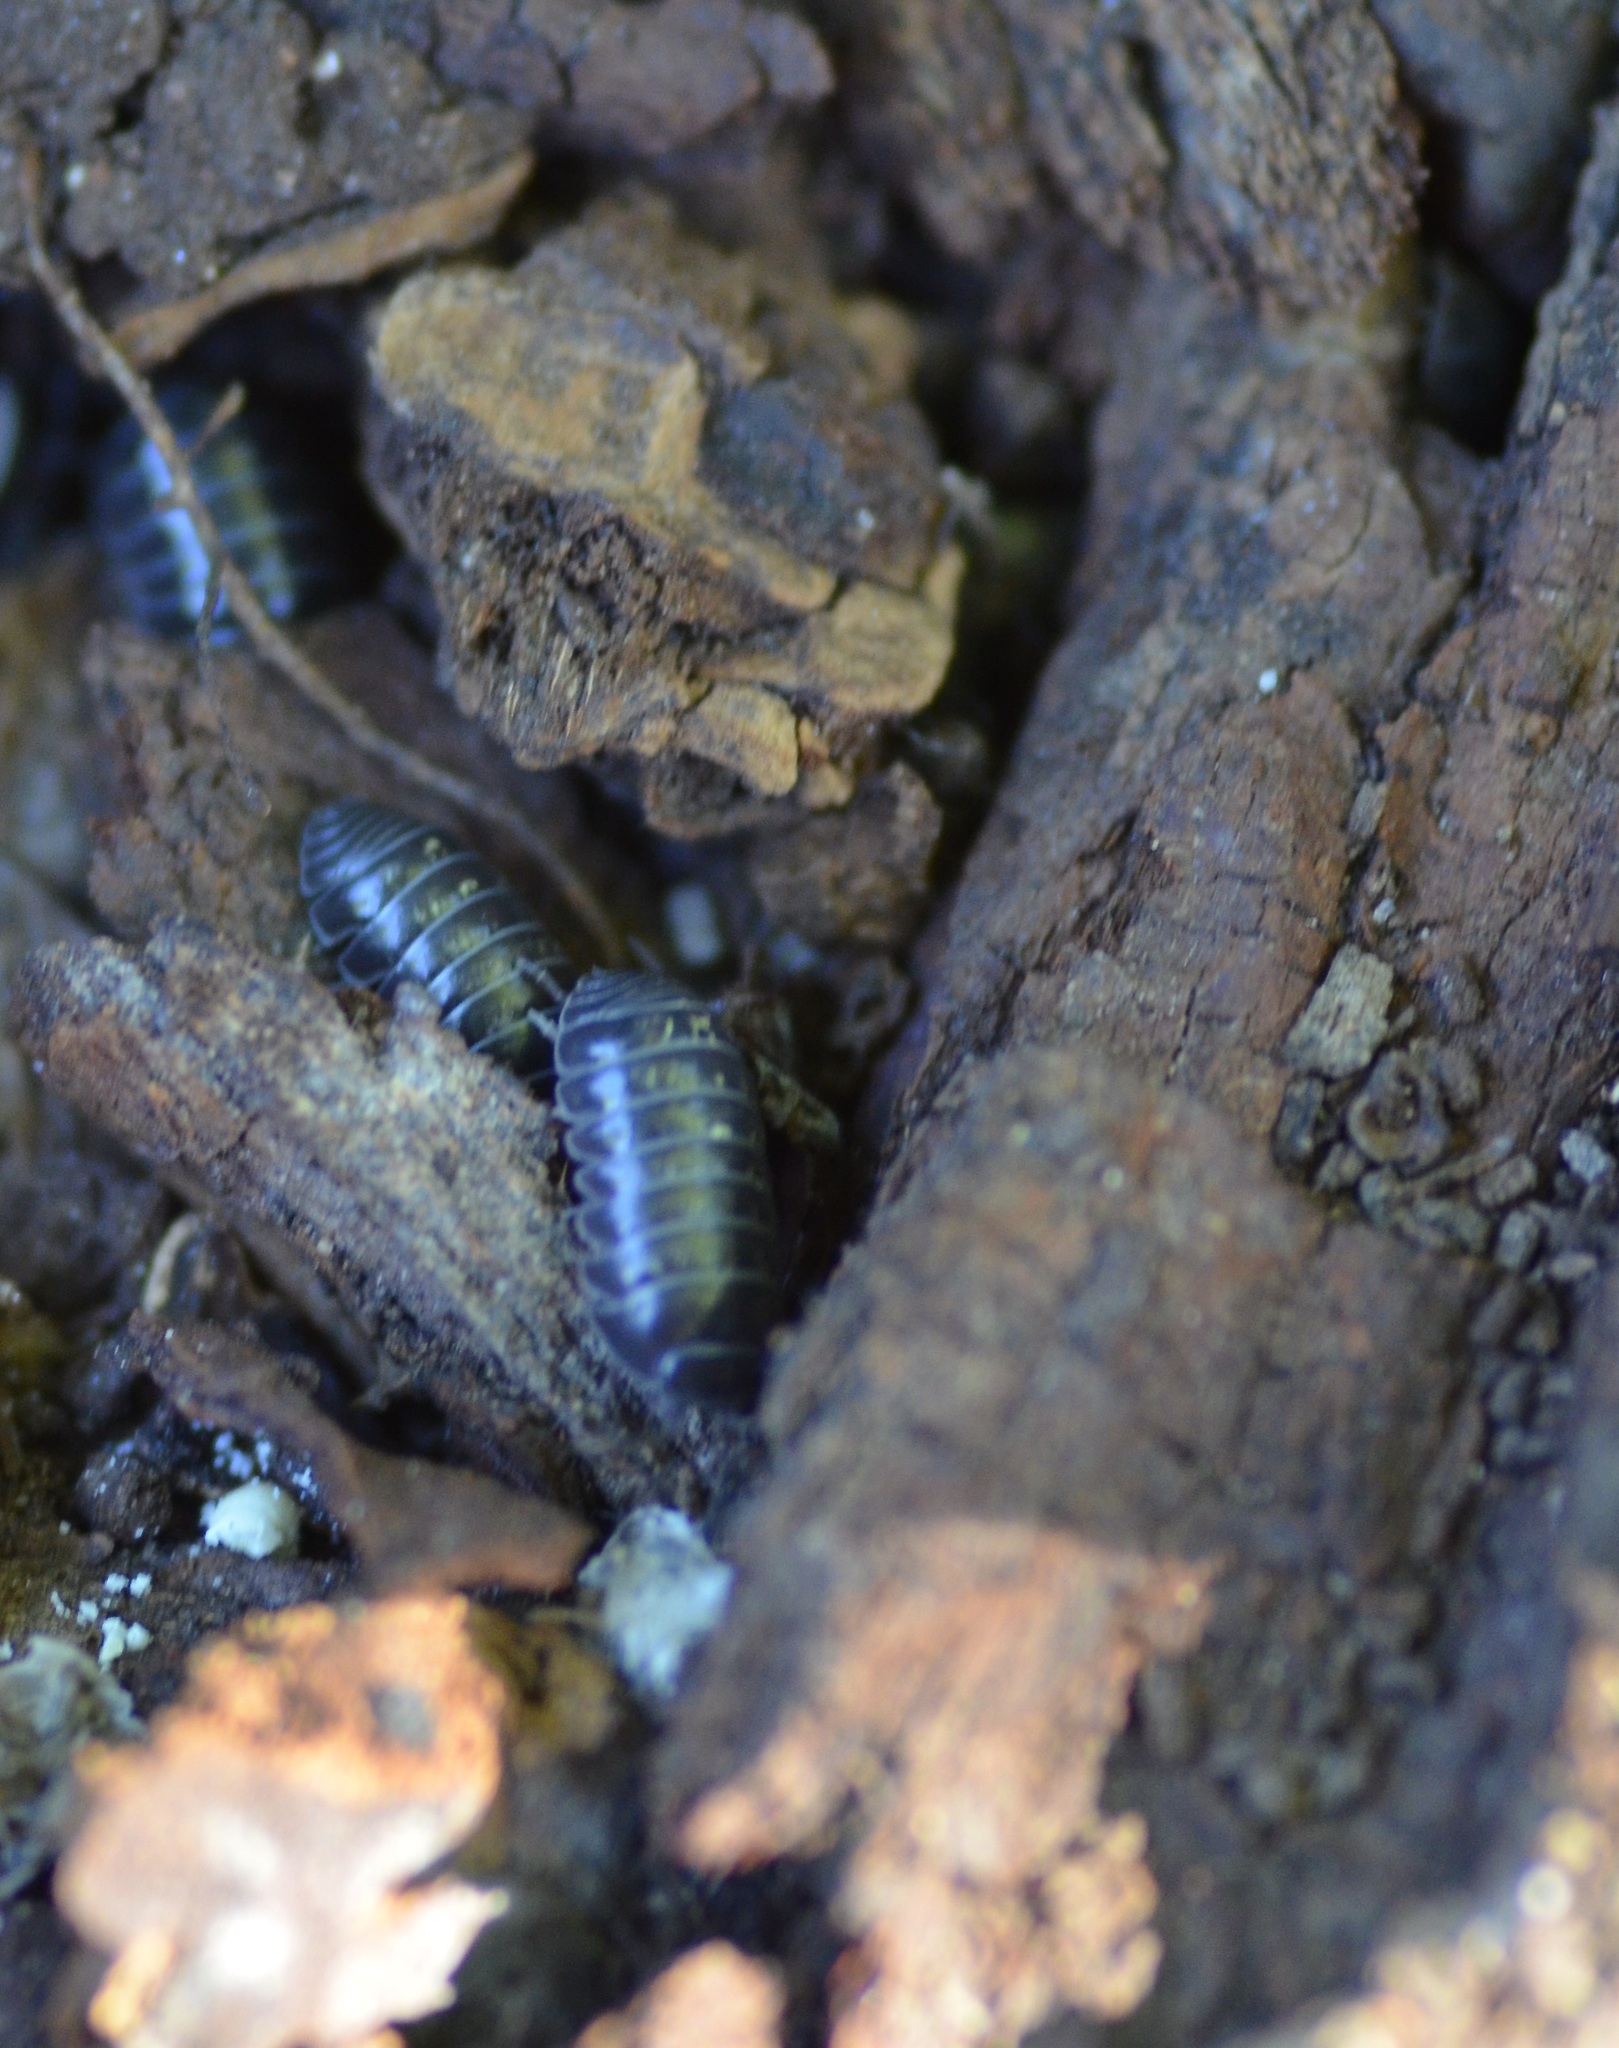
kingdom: Animalia
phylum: Arthropoda
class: Malacostraca
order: Isopoda
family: Armadillidiidae
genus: Armadillidium
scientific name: Armadillidium vulgare
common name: Common pill woodlouse
